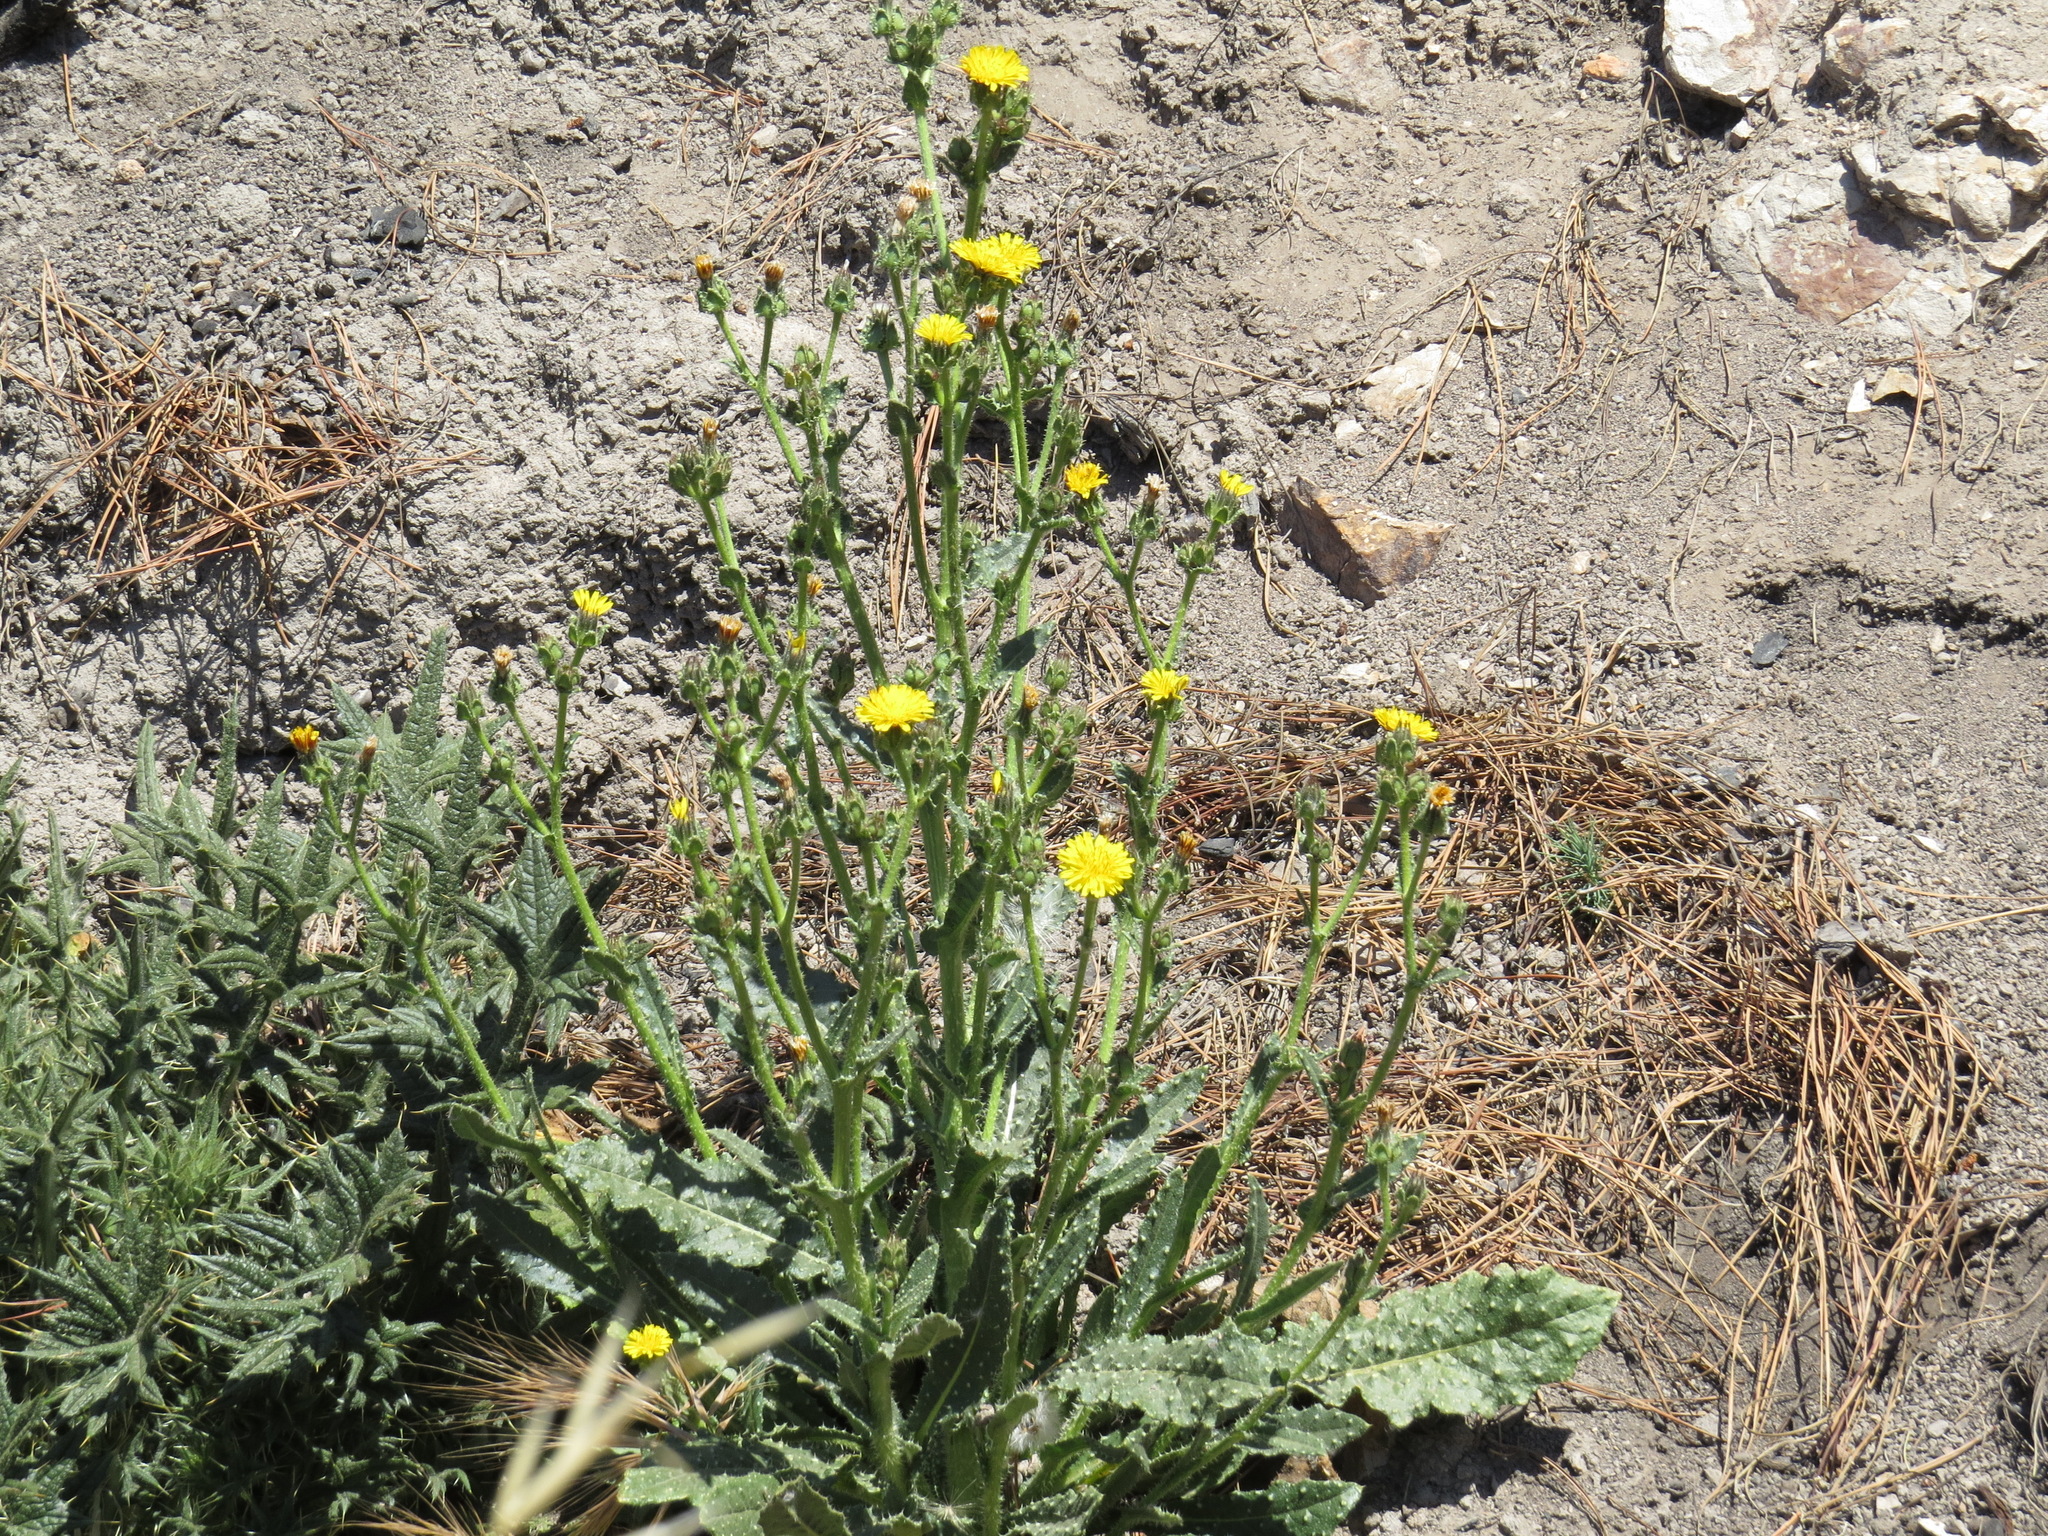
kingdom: Plantae
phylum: Tracheophyta
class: Magnoliopsida
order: Asterales
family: Asteraceae
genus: Helminthotheca
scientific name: Helminthotheca echioides
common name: Ox-tongue
